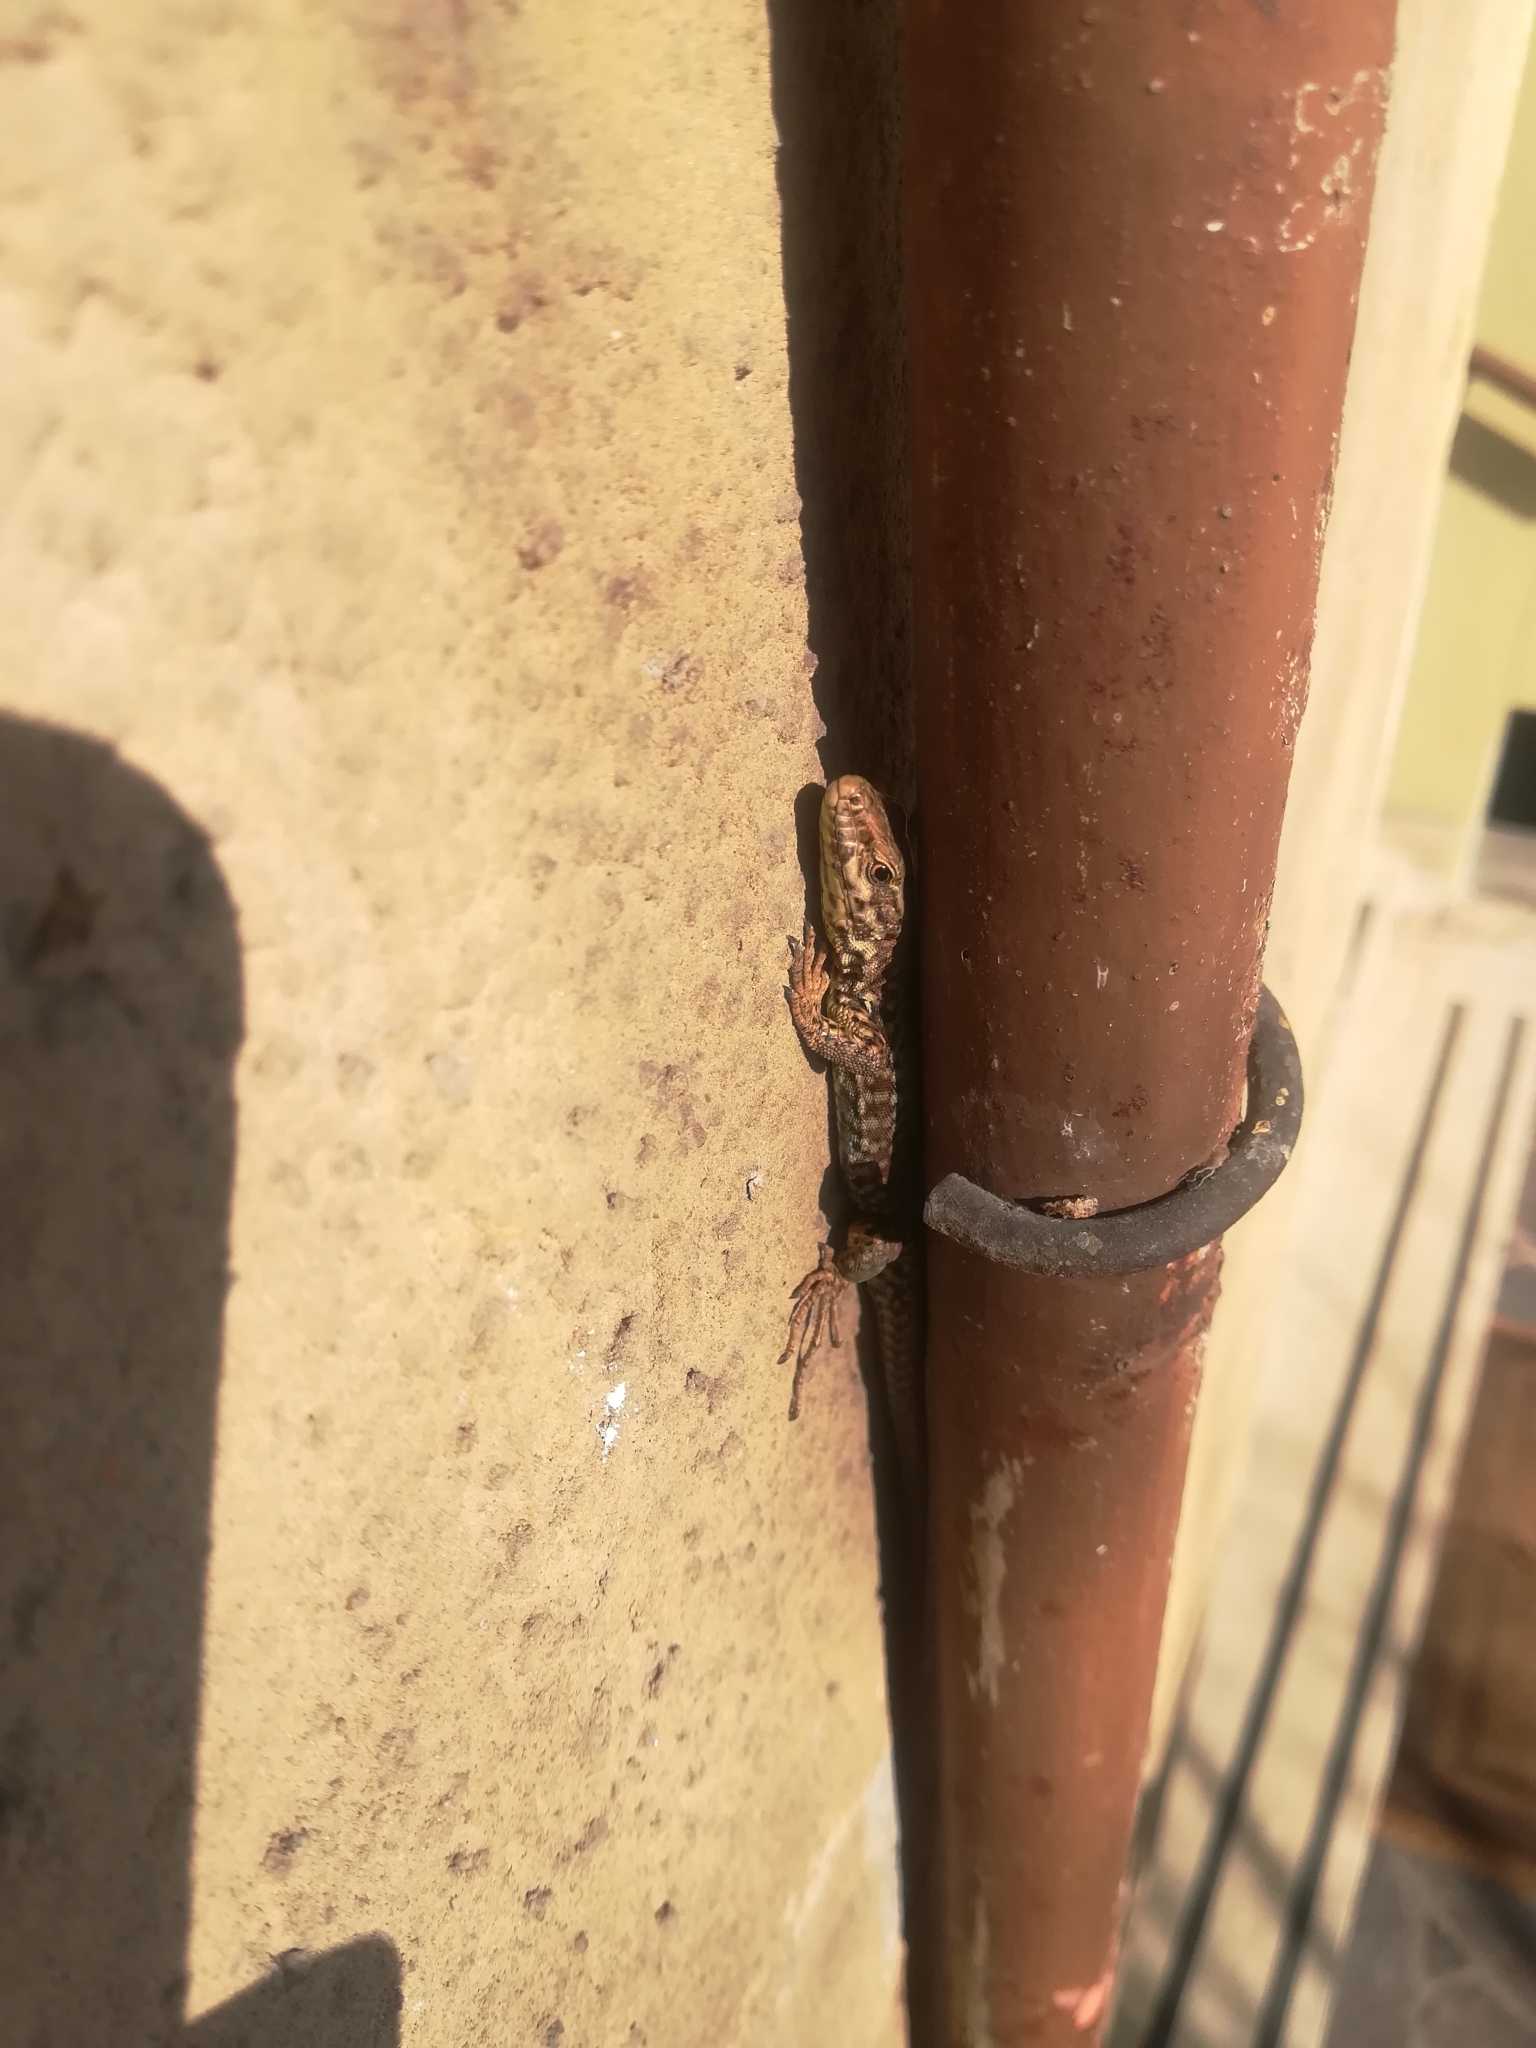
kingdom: Animalia
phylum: Chordata
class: Squamata
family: Lacertidae
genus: Podarcis
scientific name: Podarcis muralis
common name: Common wall lizard
